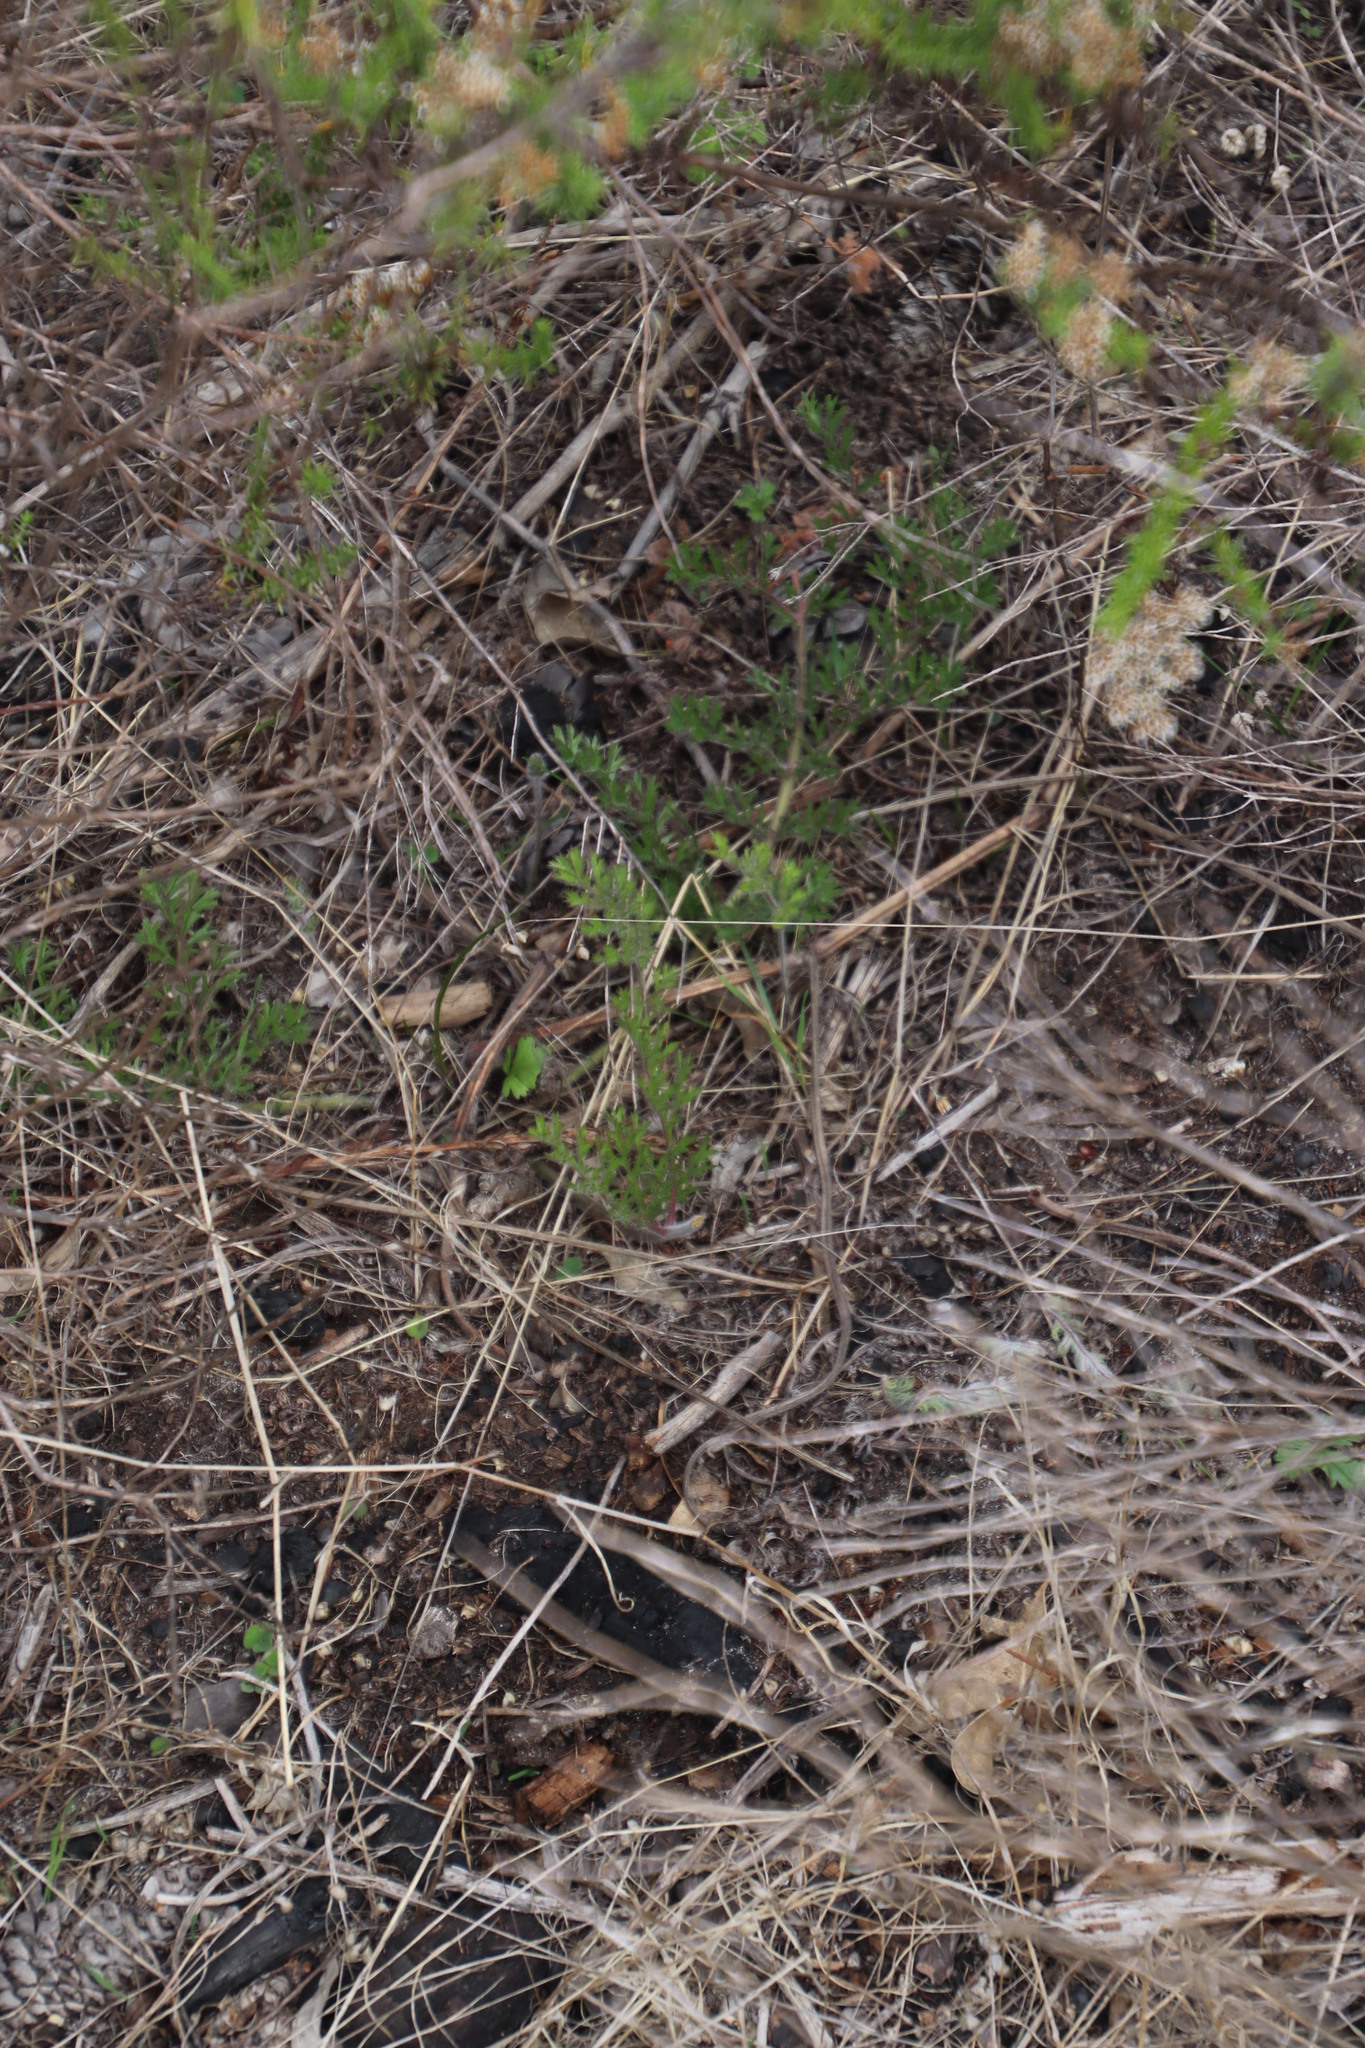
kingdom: Plantae
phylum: Tracheophyta
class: Magnoliopsida
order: Geraniales
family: Geraniaceae
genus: Pelargonium
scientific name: Pelargonium triste
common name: Night-scent pelargonium
